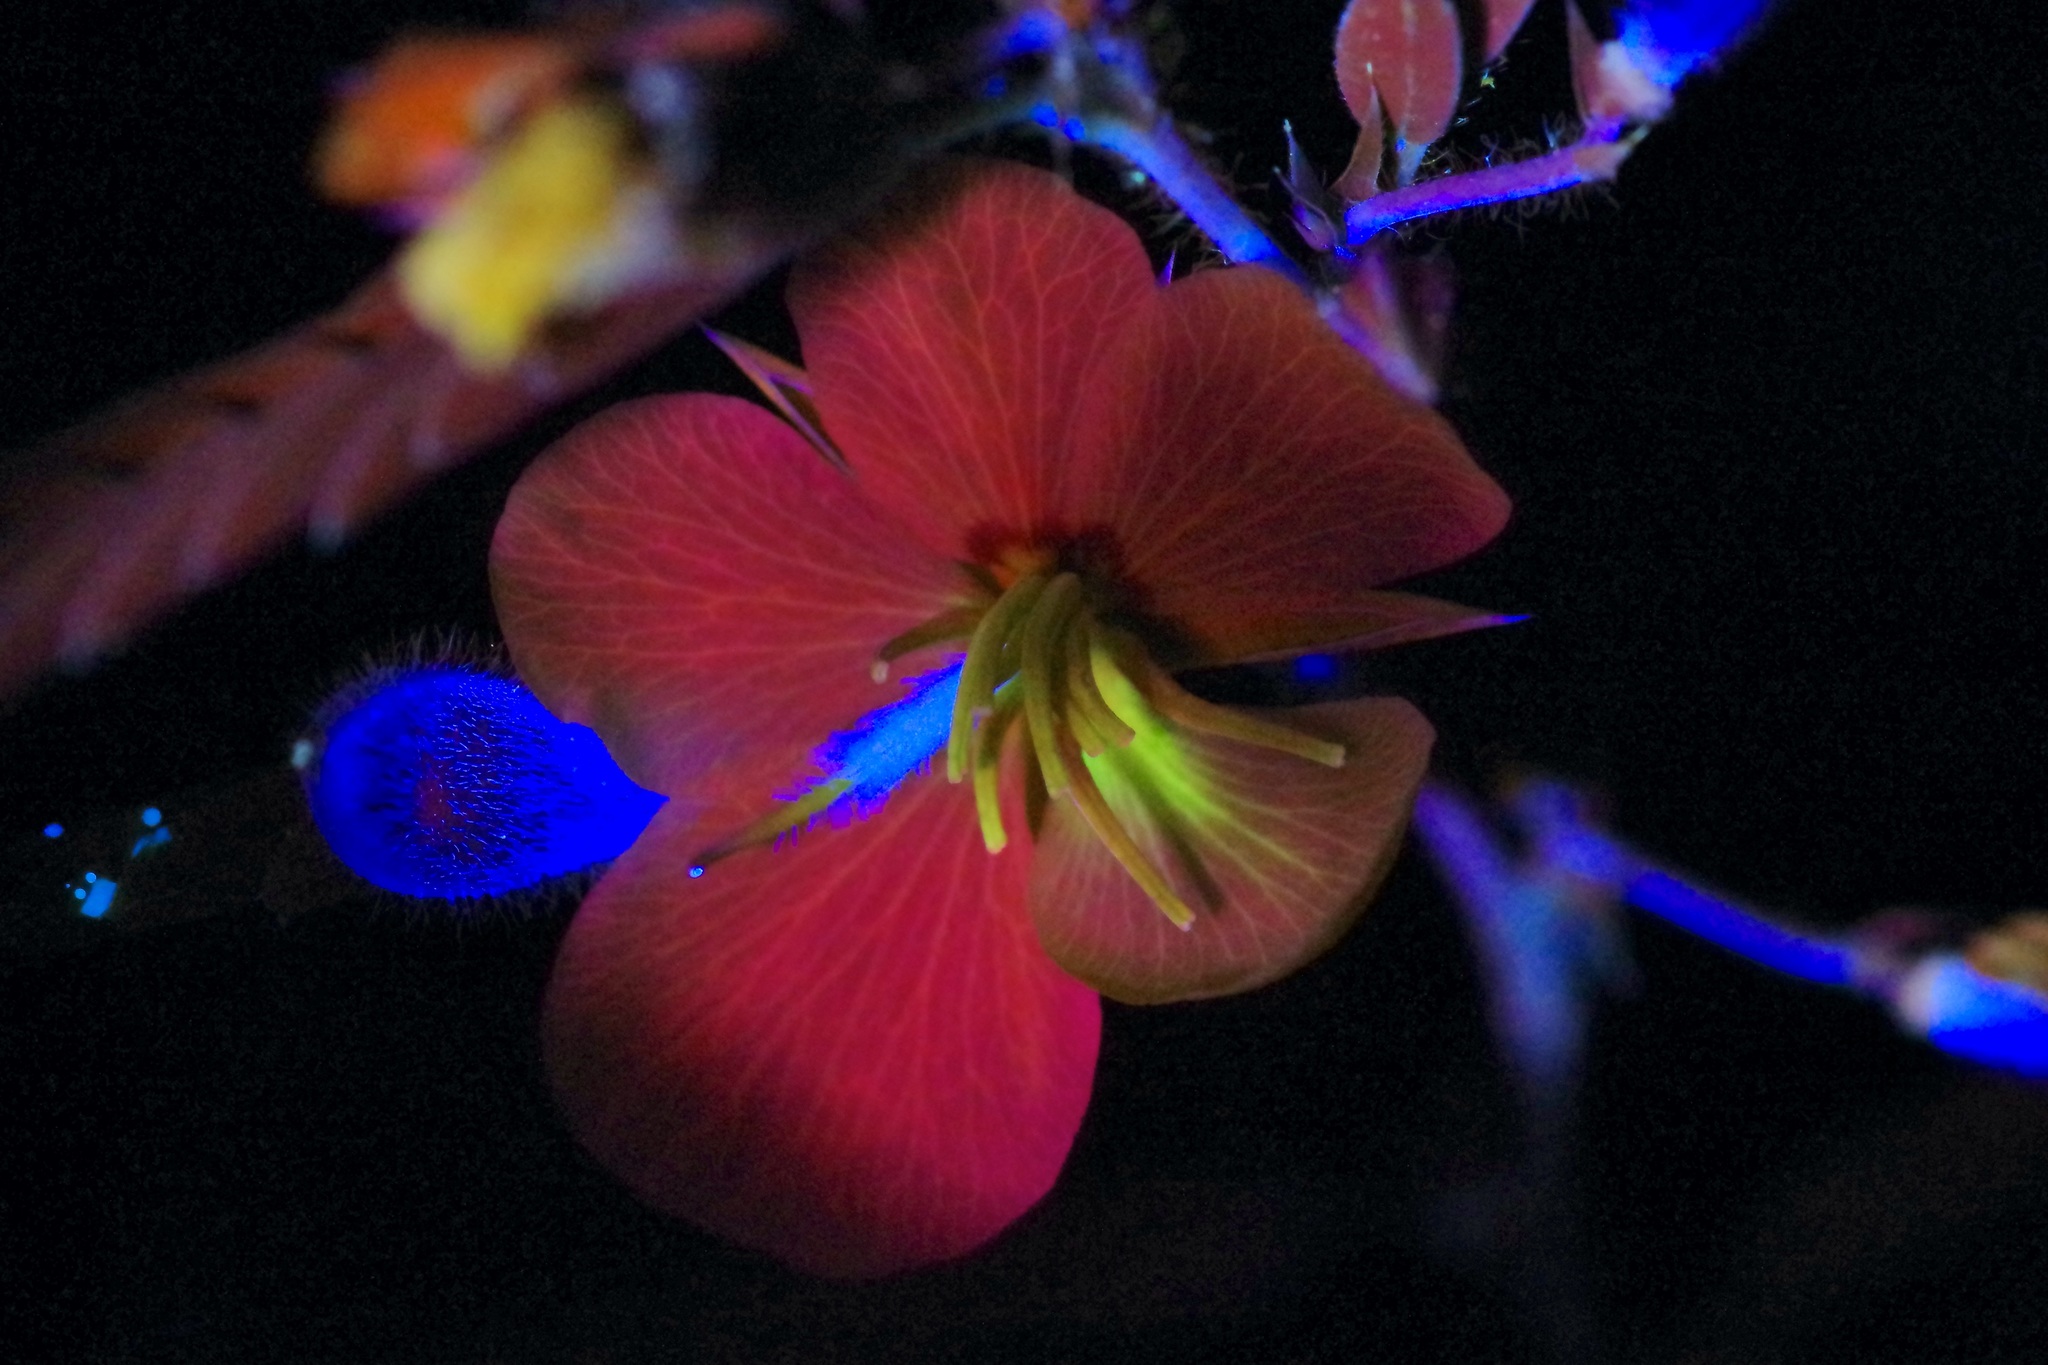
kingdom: Plantae
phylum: Tracheophyta
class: Magnoliopsida
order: Fabales
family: Fabaceae
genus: Chamaecrista
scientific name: Chamaecrista fasciculata
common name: Golden cassia
